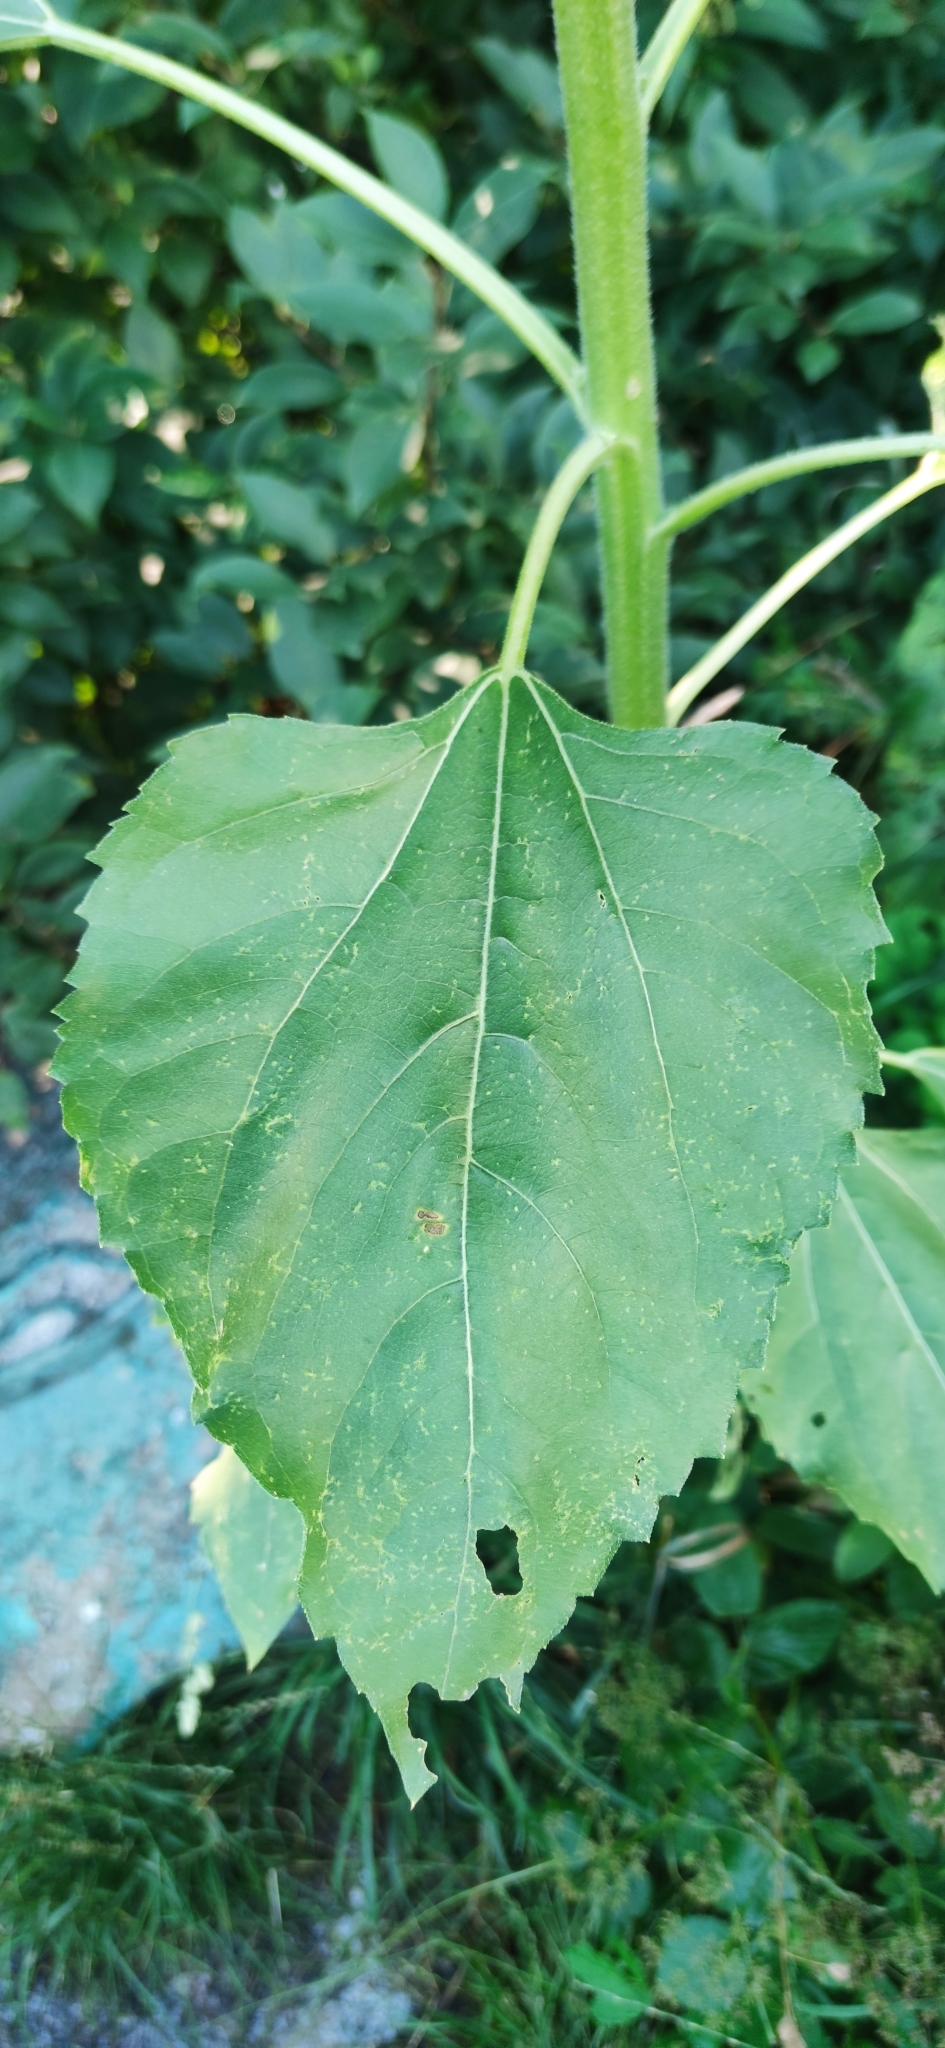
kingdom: Plantae
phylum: Tracheophyta
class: Magnoliopsida
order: Asterales
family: Asteraceae
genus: Helianthus
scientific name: Helianthus annuus
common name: Sunflower
